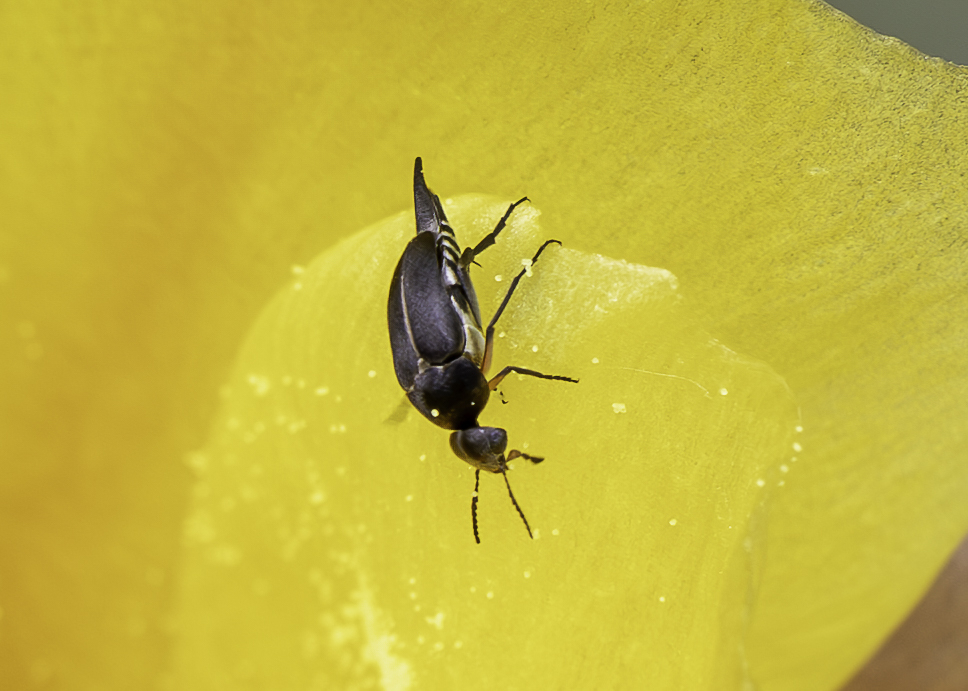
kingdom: Animalia
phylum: Arthropoda
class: Insecta
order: Coleoptera
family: Mordellidae
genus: Mordella
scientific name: Mordella hubbsi
